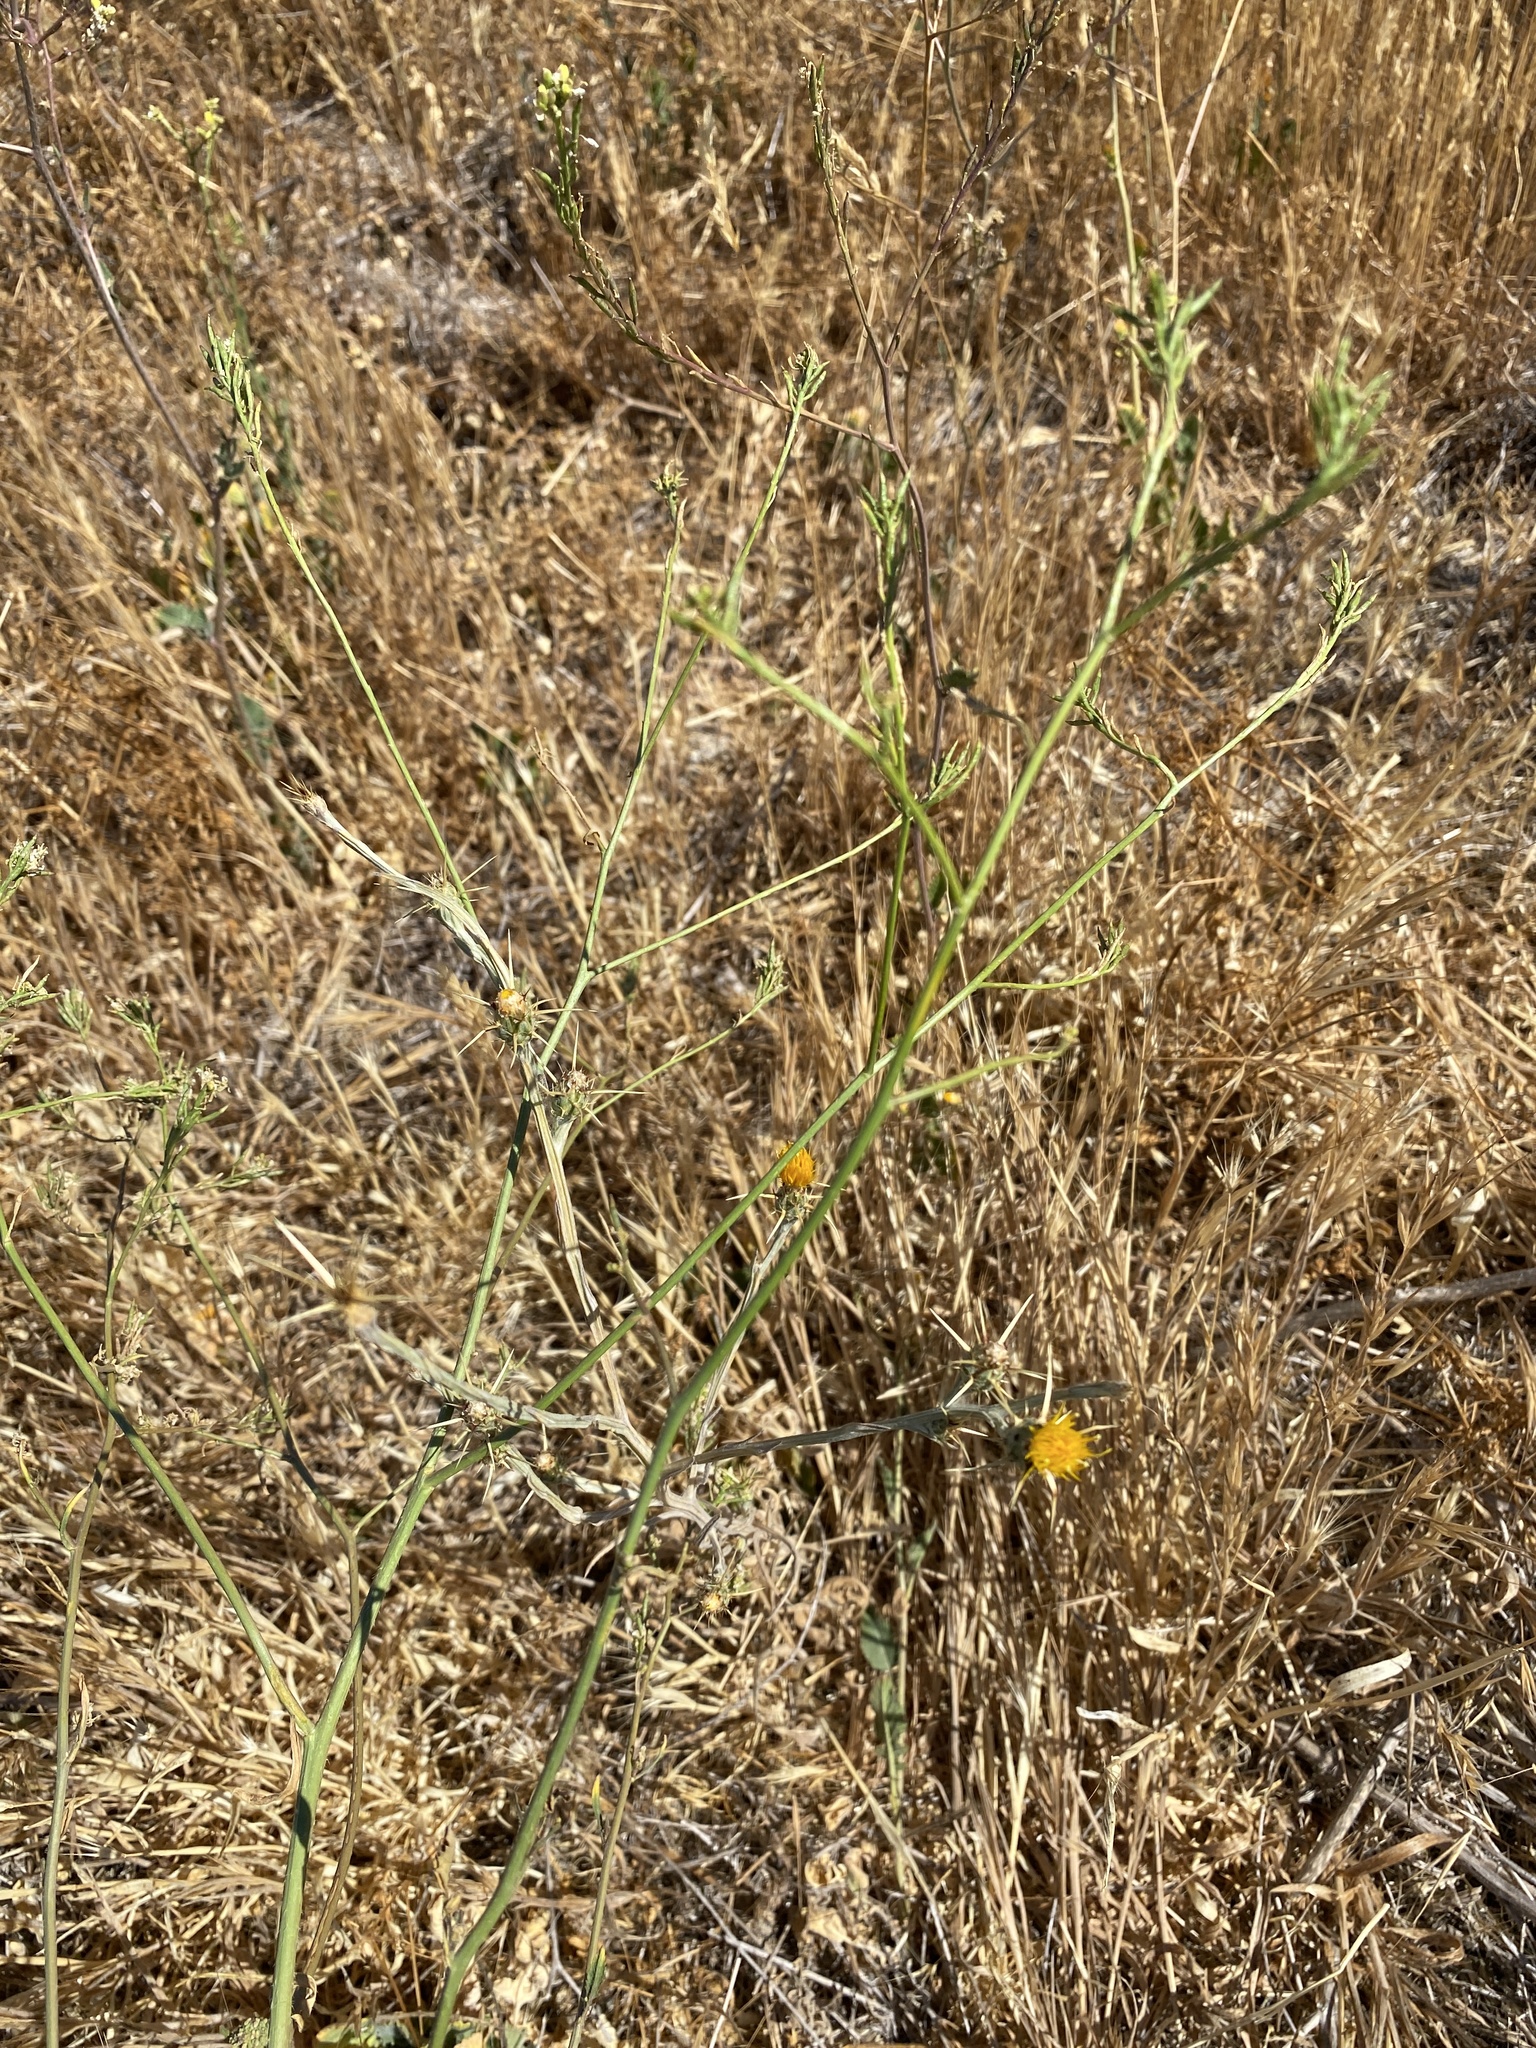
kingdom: Plantae
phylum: Tracheophyta
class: Magnoliopsida
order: Asterales
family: Asteraceae
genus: Centaurea
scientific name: Centaurea solstitialis
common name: Yellow star-thistle
